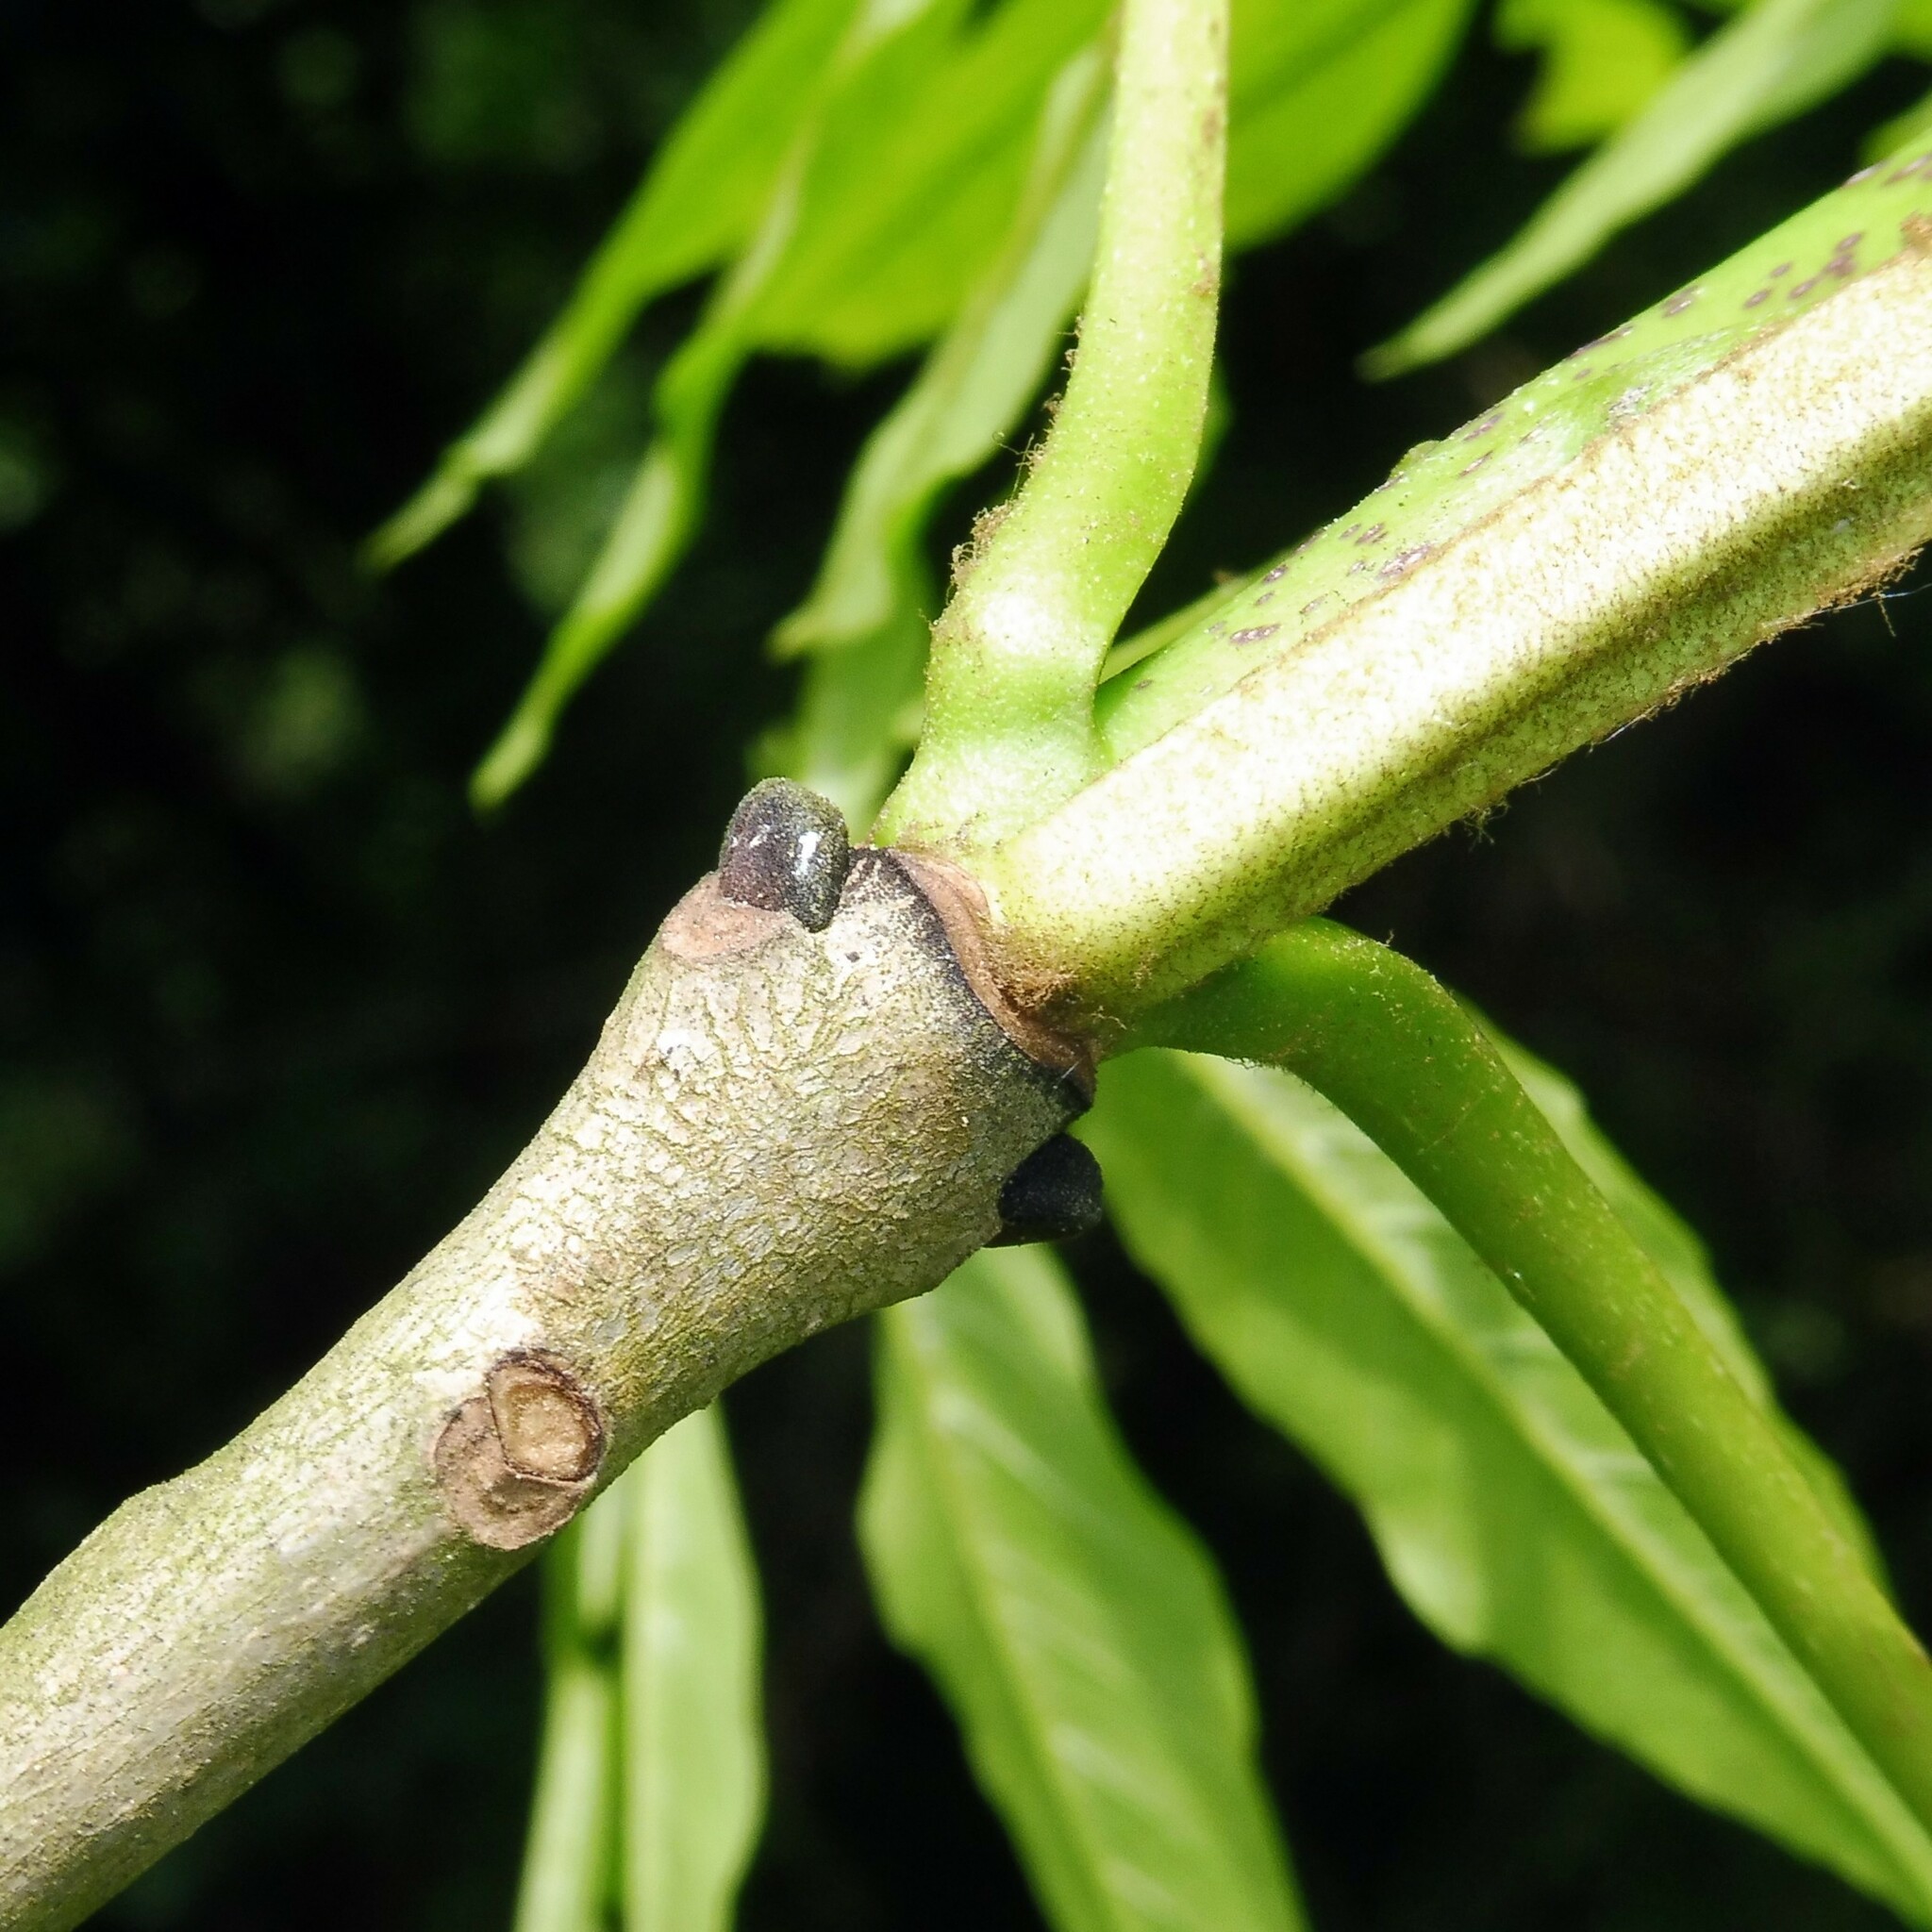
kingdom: Plantae
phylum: Tracheophyta
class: Magnoliopsida
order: Lamiales
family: Oleaceae
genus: Fraxinus
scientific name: Fraxinus excelsior
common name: European ash
